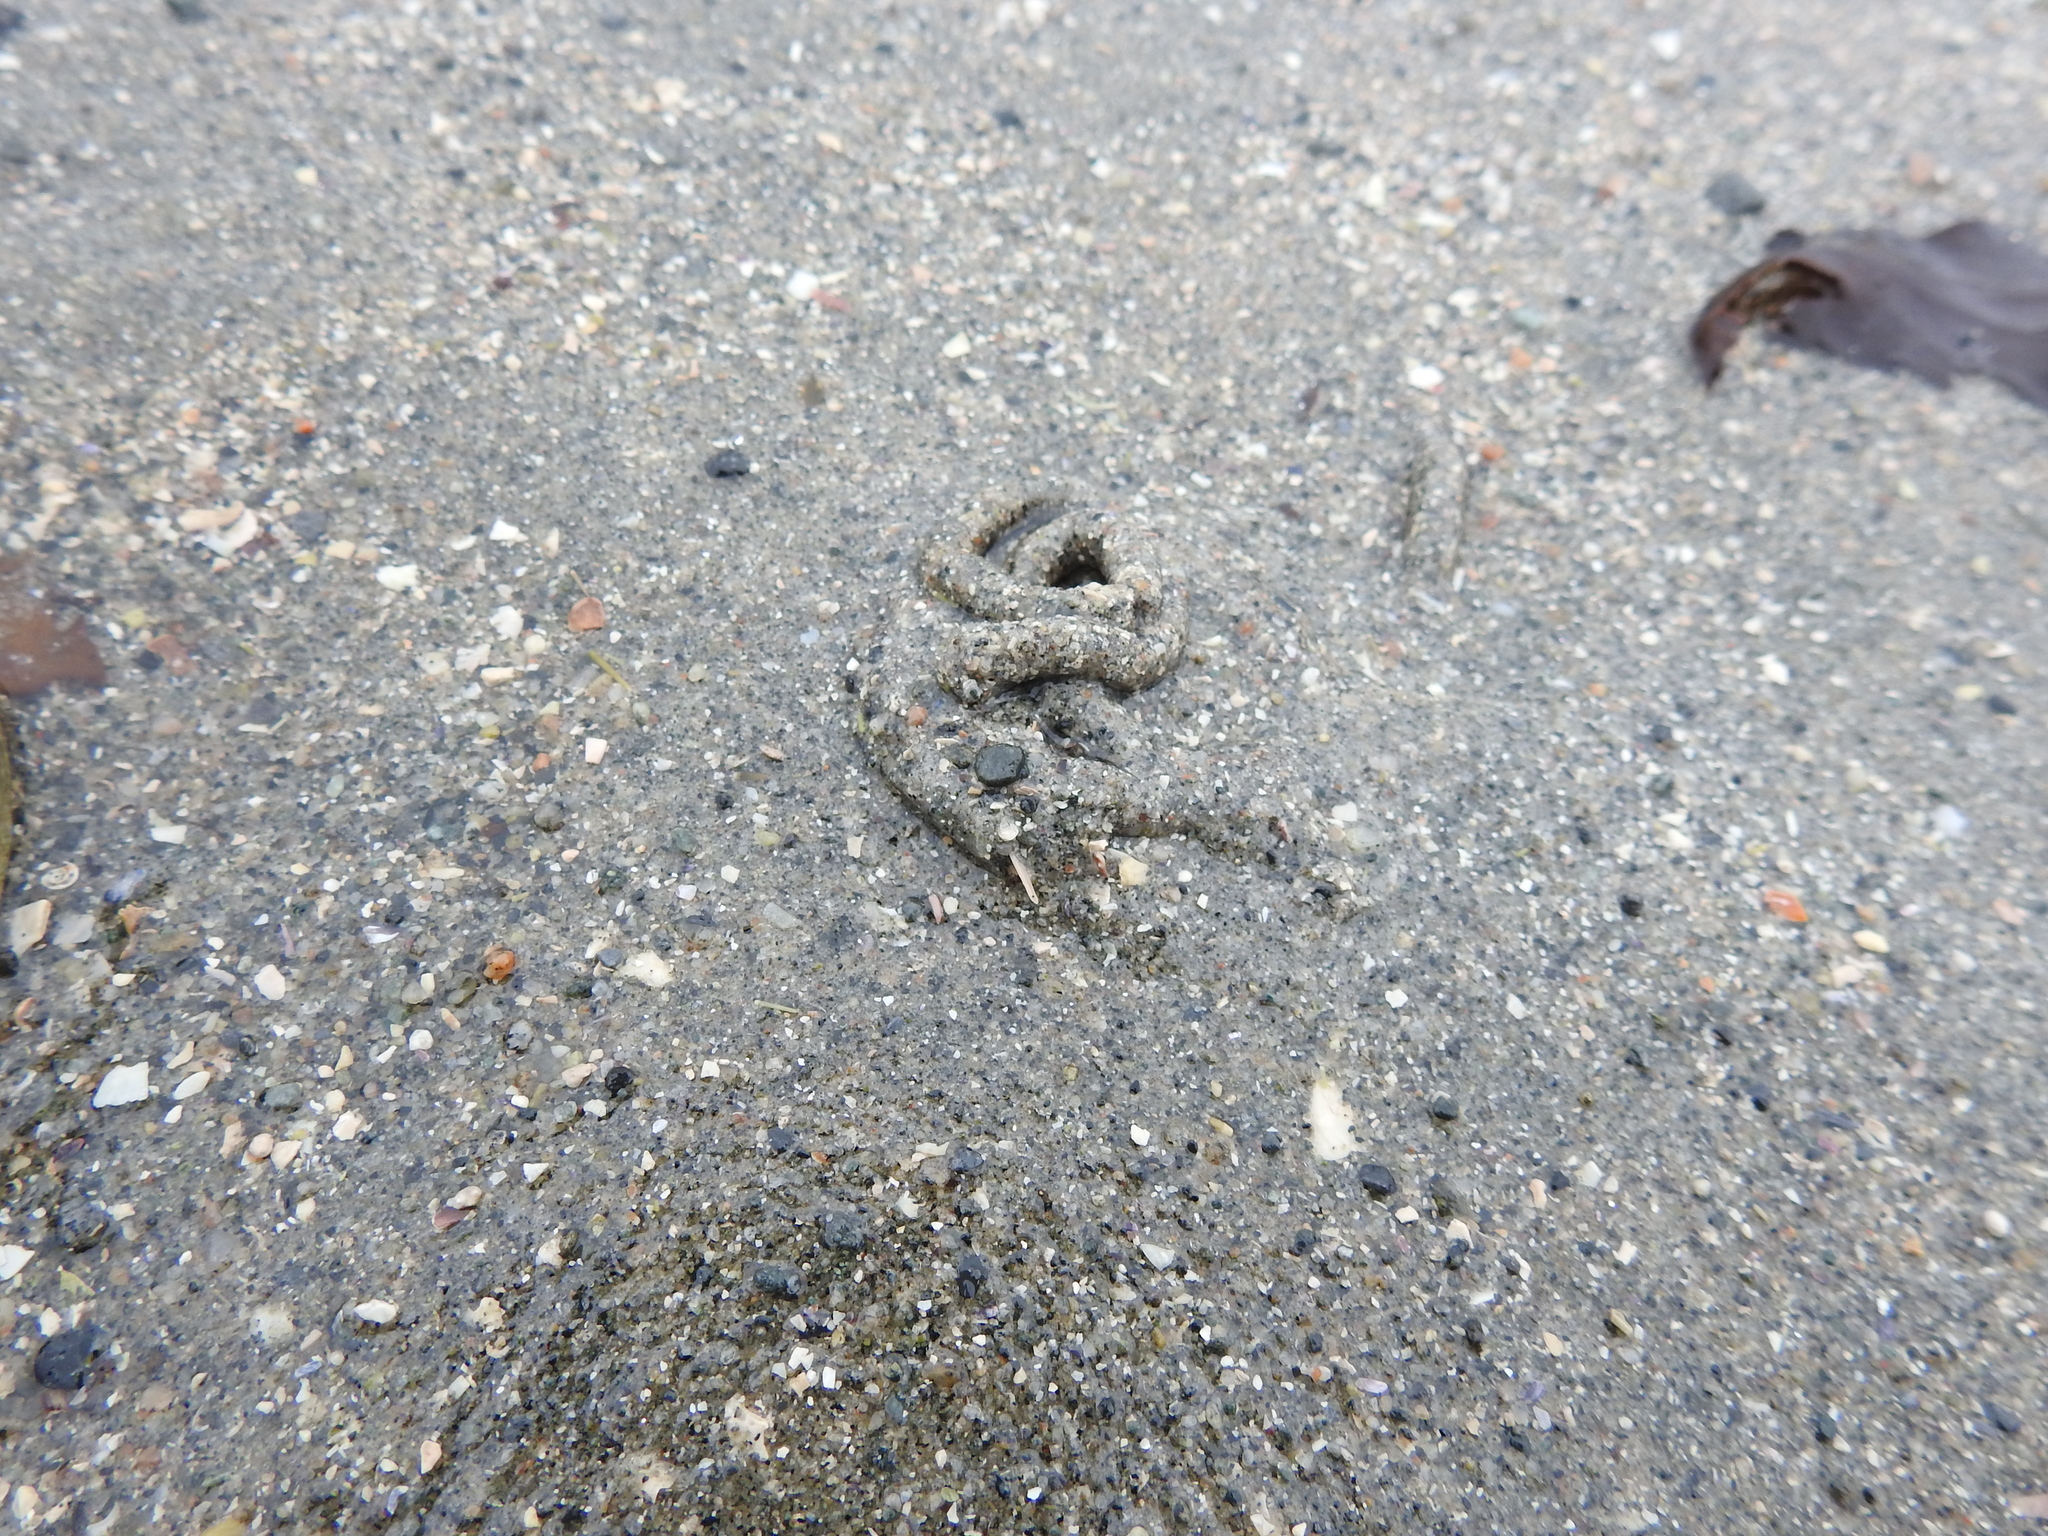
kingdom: Animalia
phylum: Annelida
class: Polychaeta
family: Arenicolidae
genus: Arenicola
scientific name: Arenicola marina
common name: Blow lugworm
